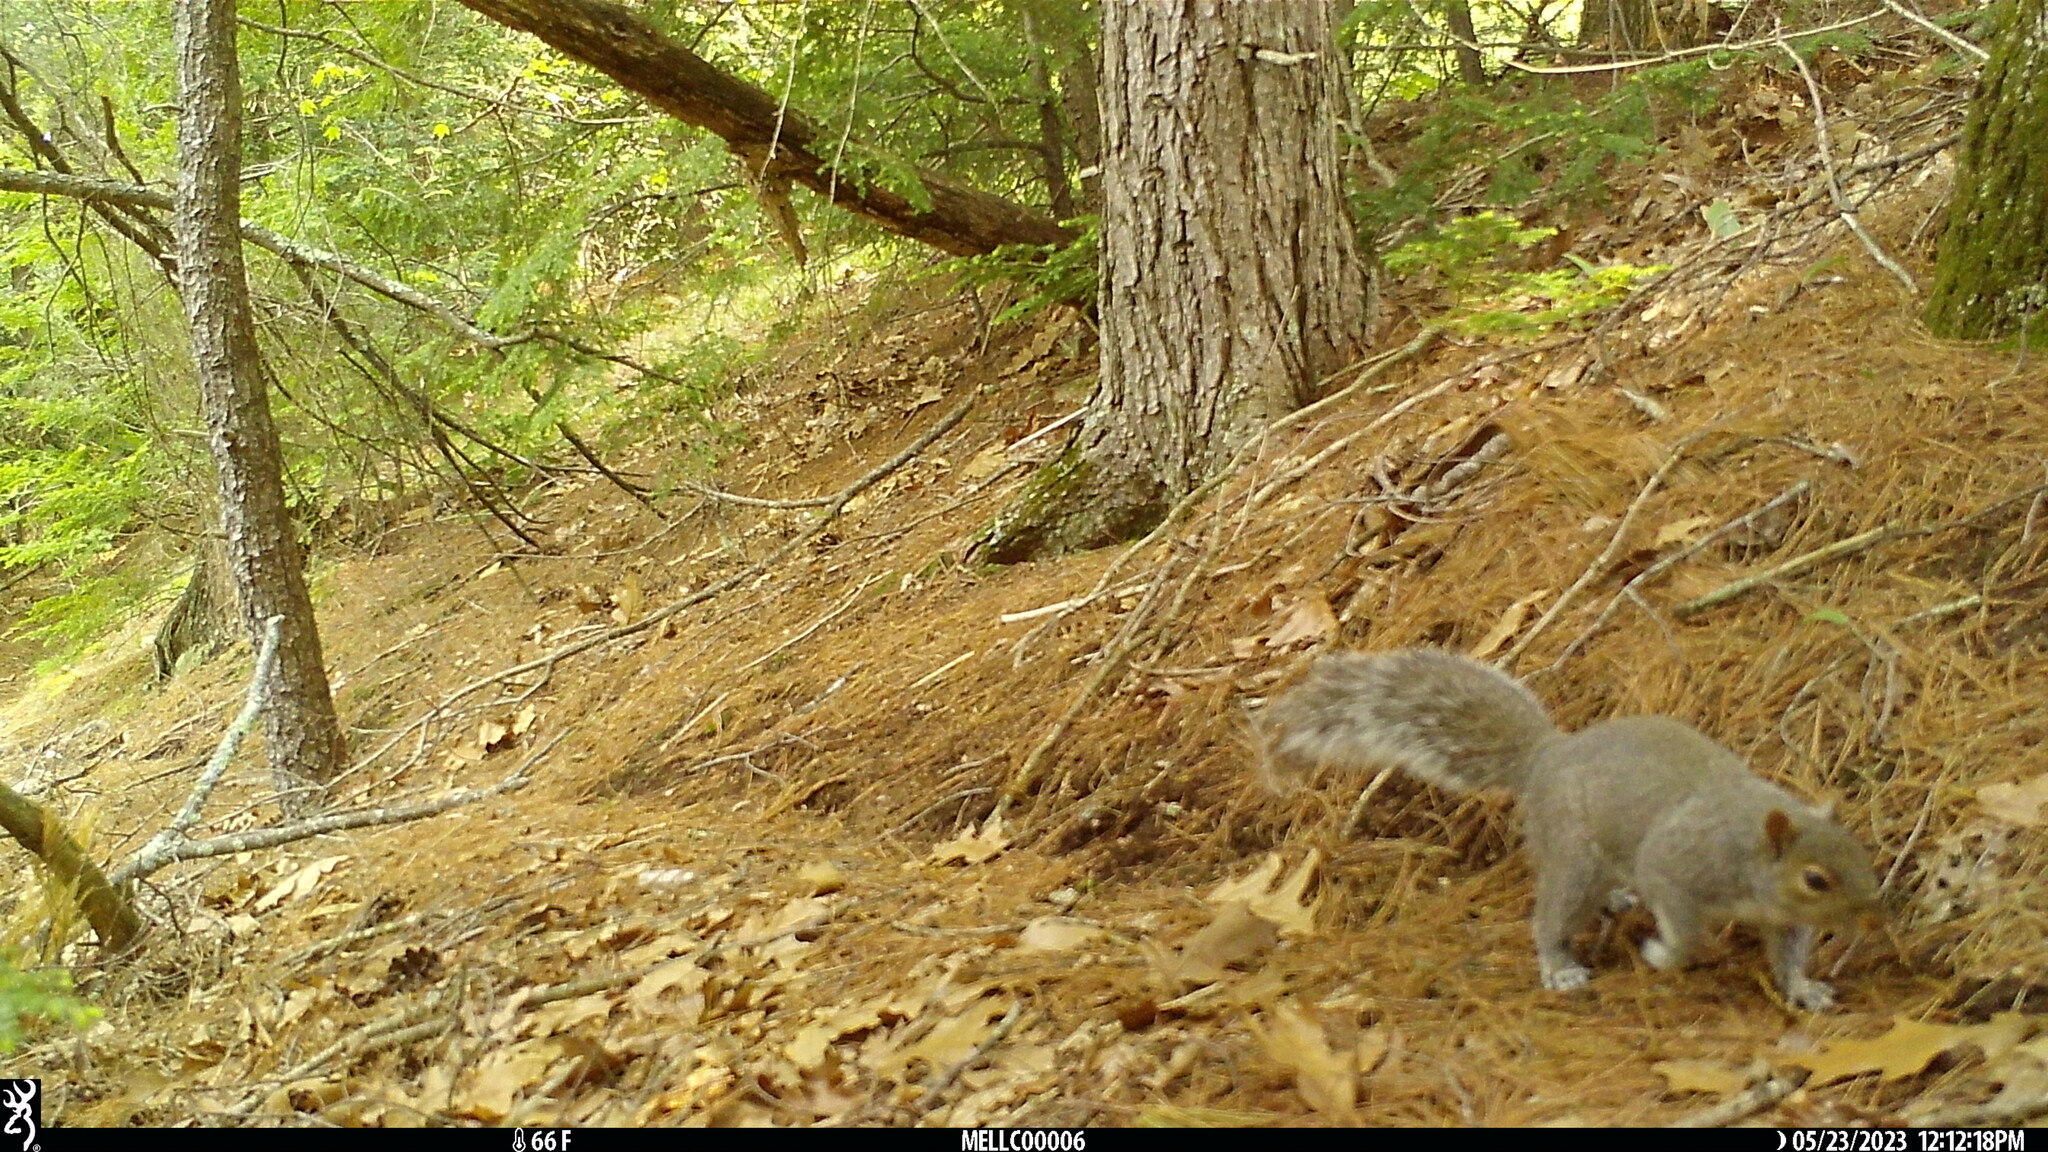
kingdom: Animalia
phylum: Chordata
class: Mammalia
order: Rodentia
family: Sciuridae
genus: Sciurus
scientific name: Sciurus carolinensis
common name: Eastern gray squirrel
